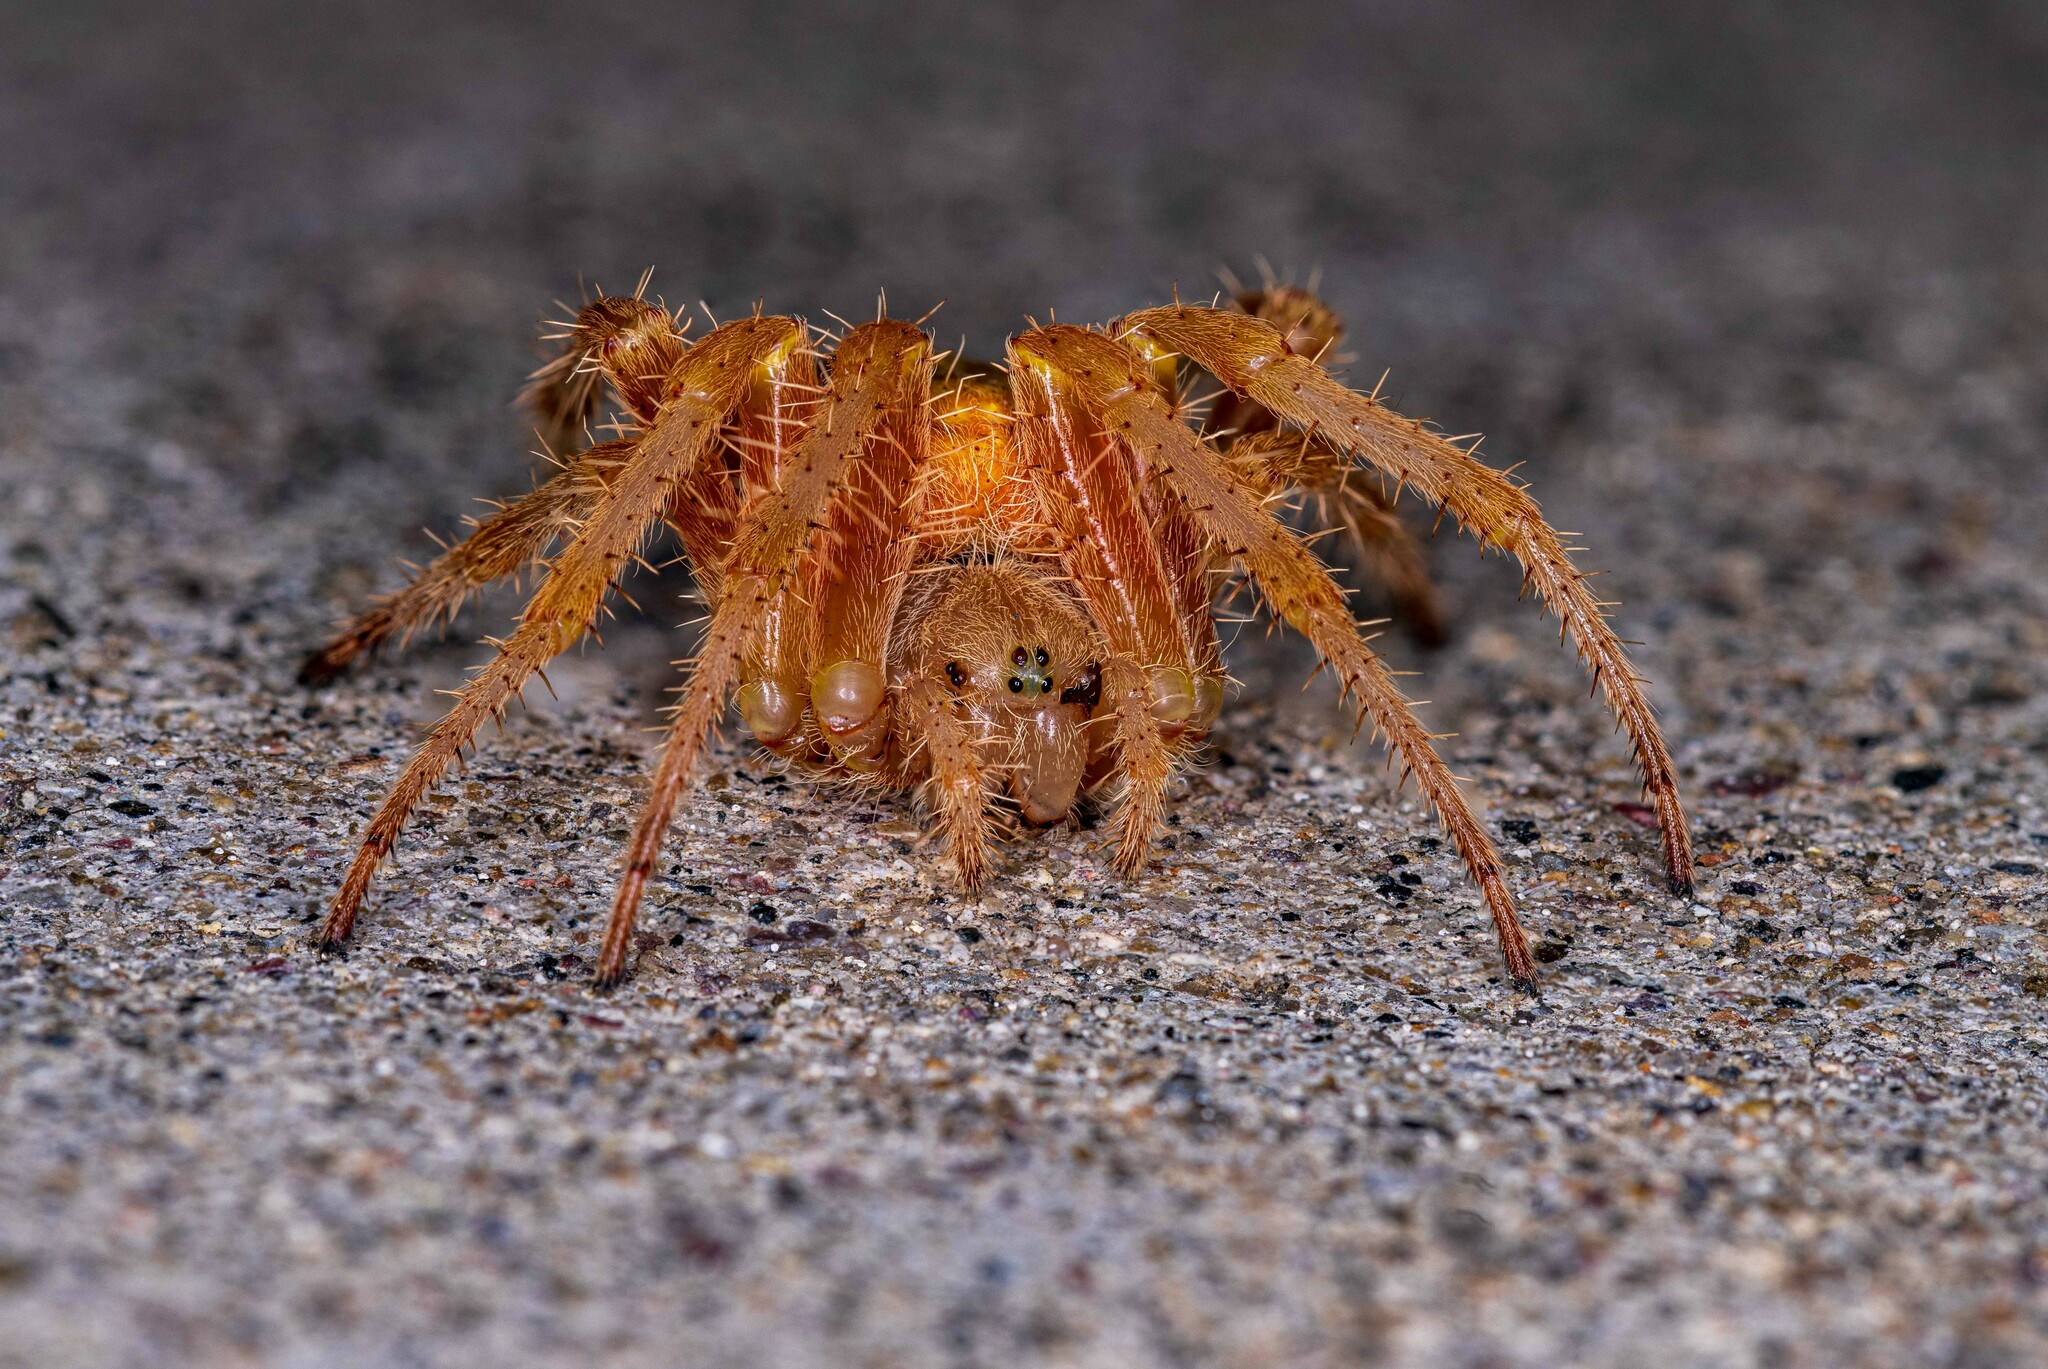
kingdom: Animalia
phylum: Arthropoda
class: Arachnida
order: Araneae
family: Araneidae
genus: Araneus
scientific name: Araneus gemma
